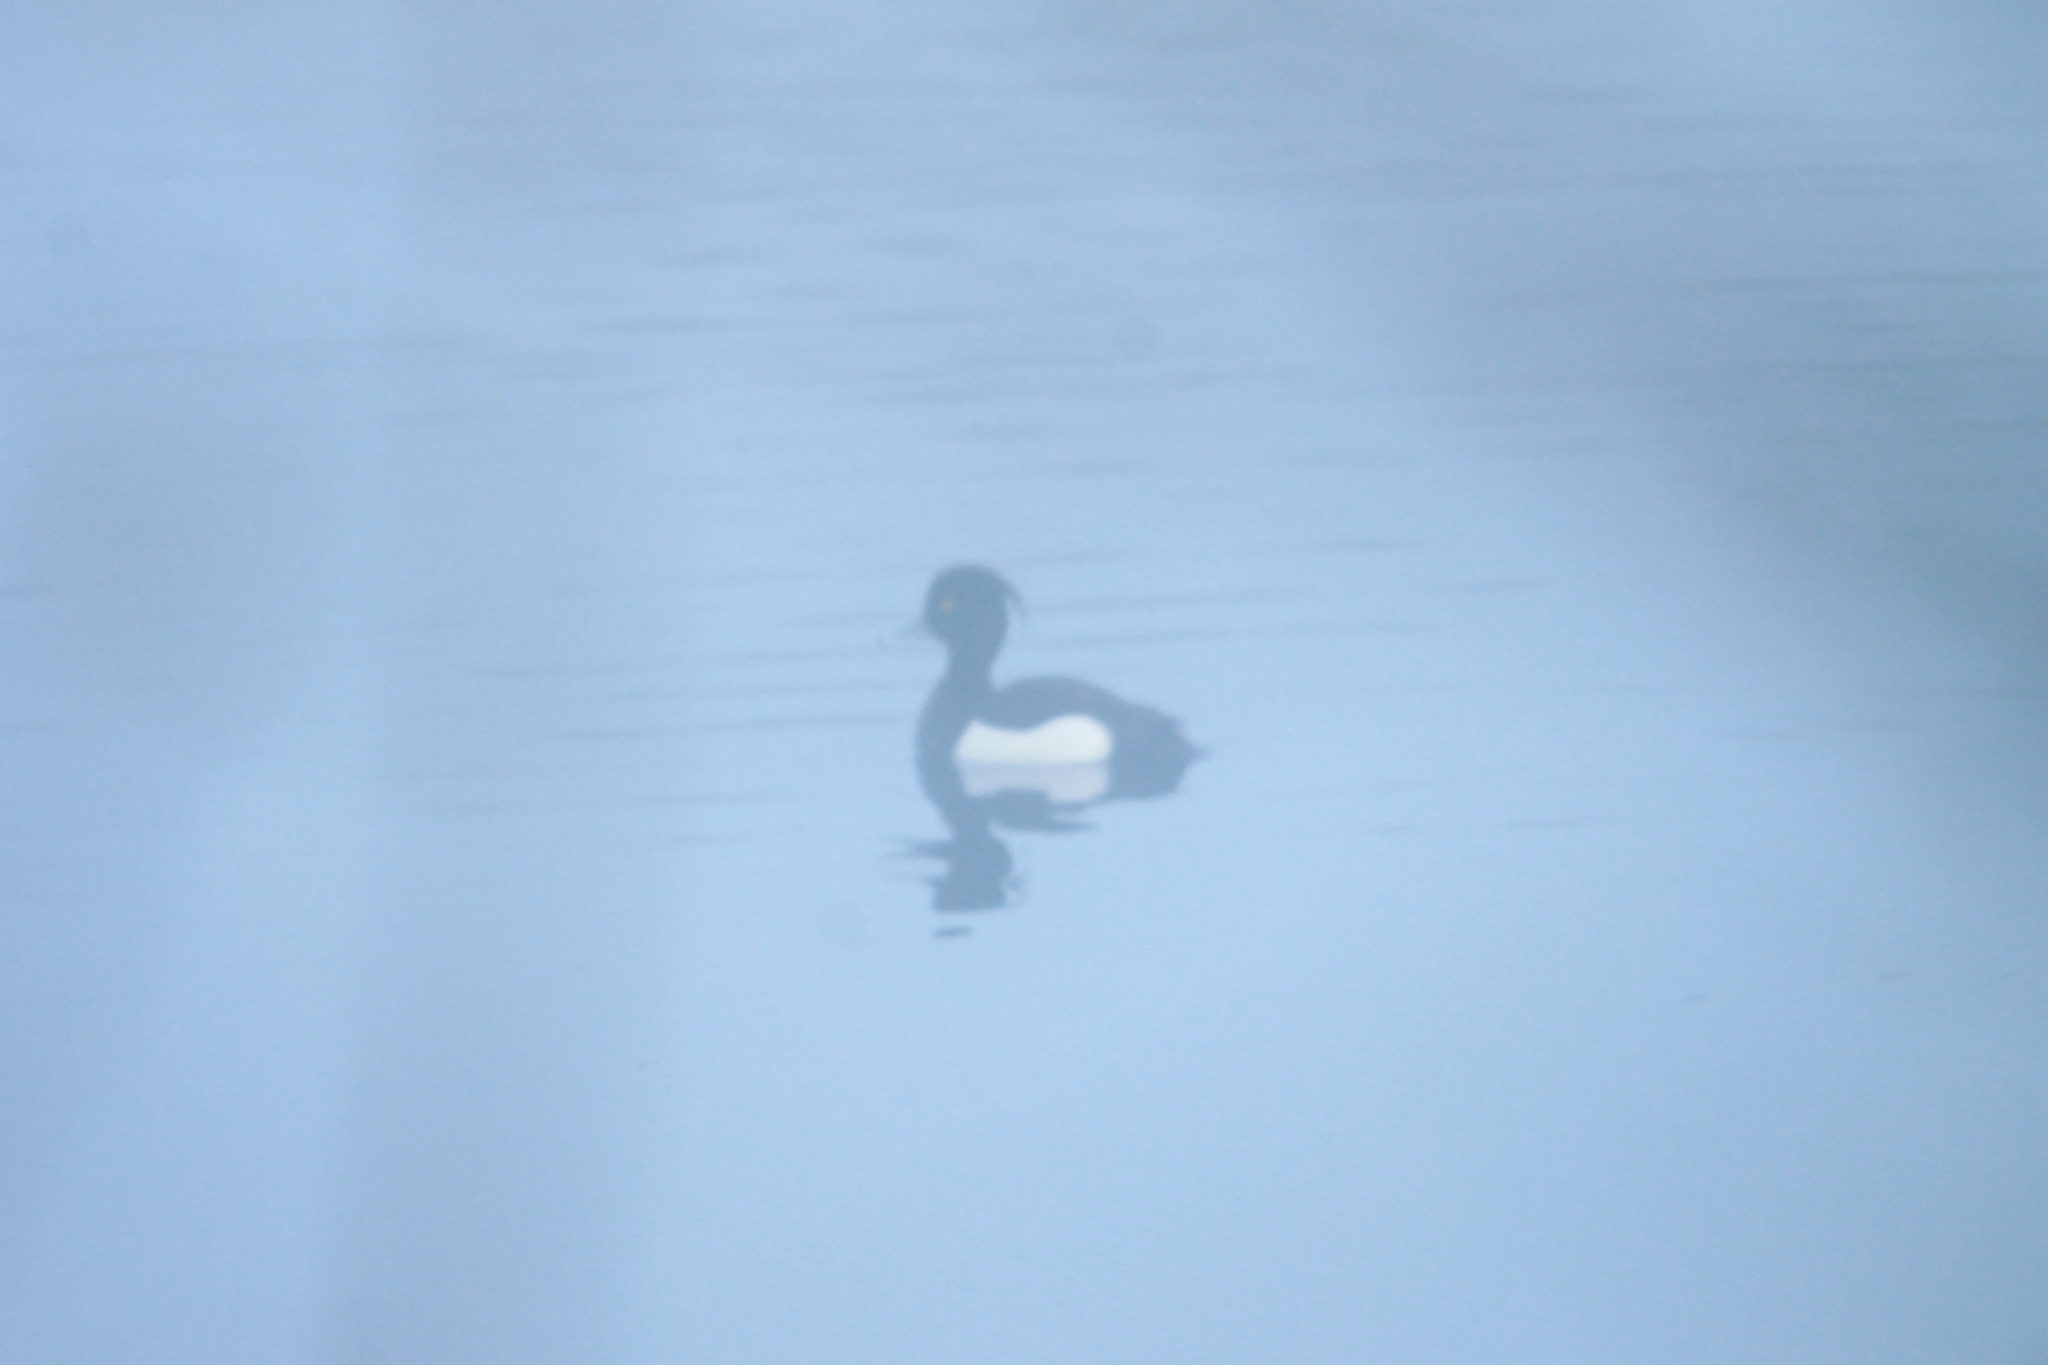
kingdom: Animalia
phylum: Chordata
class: Aves
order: Anseriformes
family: Anatidae
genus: Aythya
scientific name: Aythya fuligula
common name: Tufted duck
